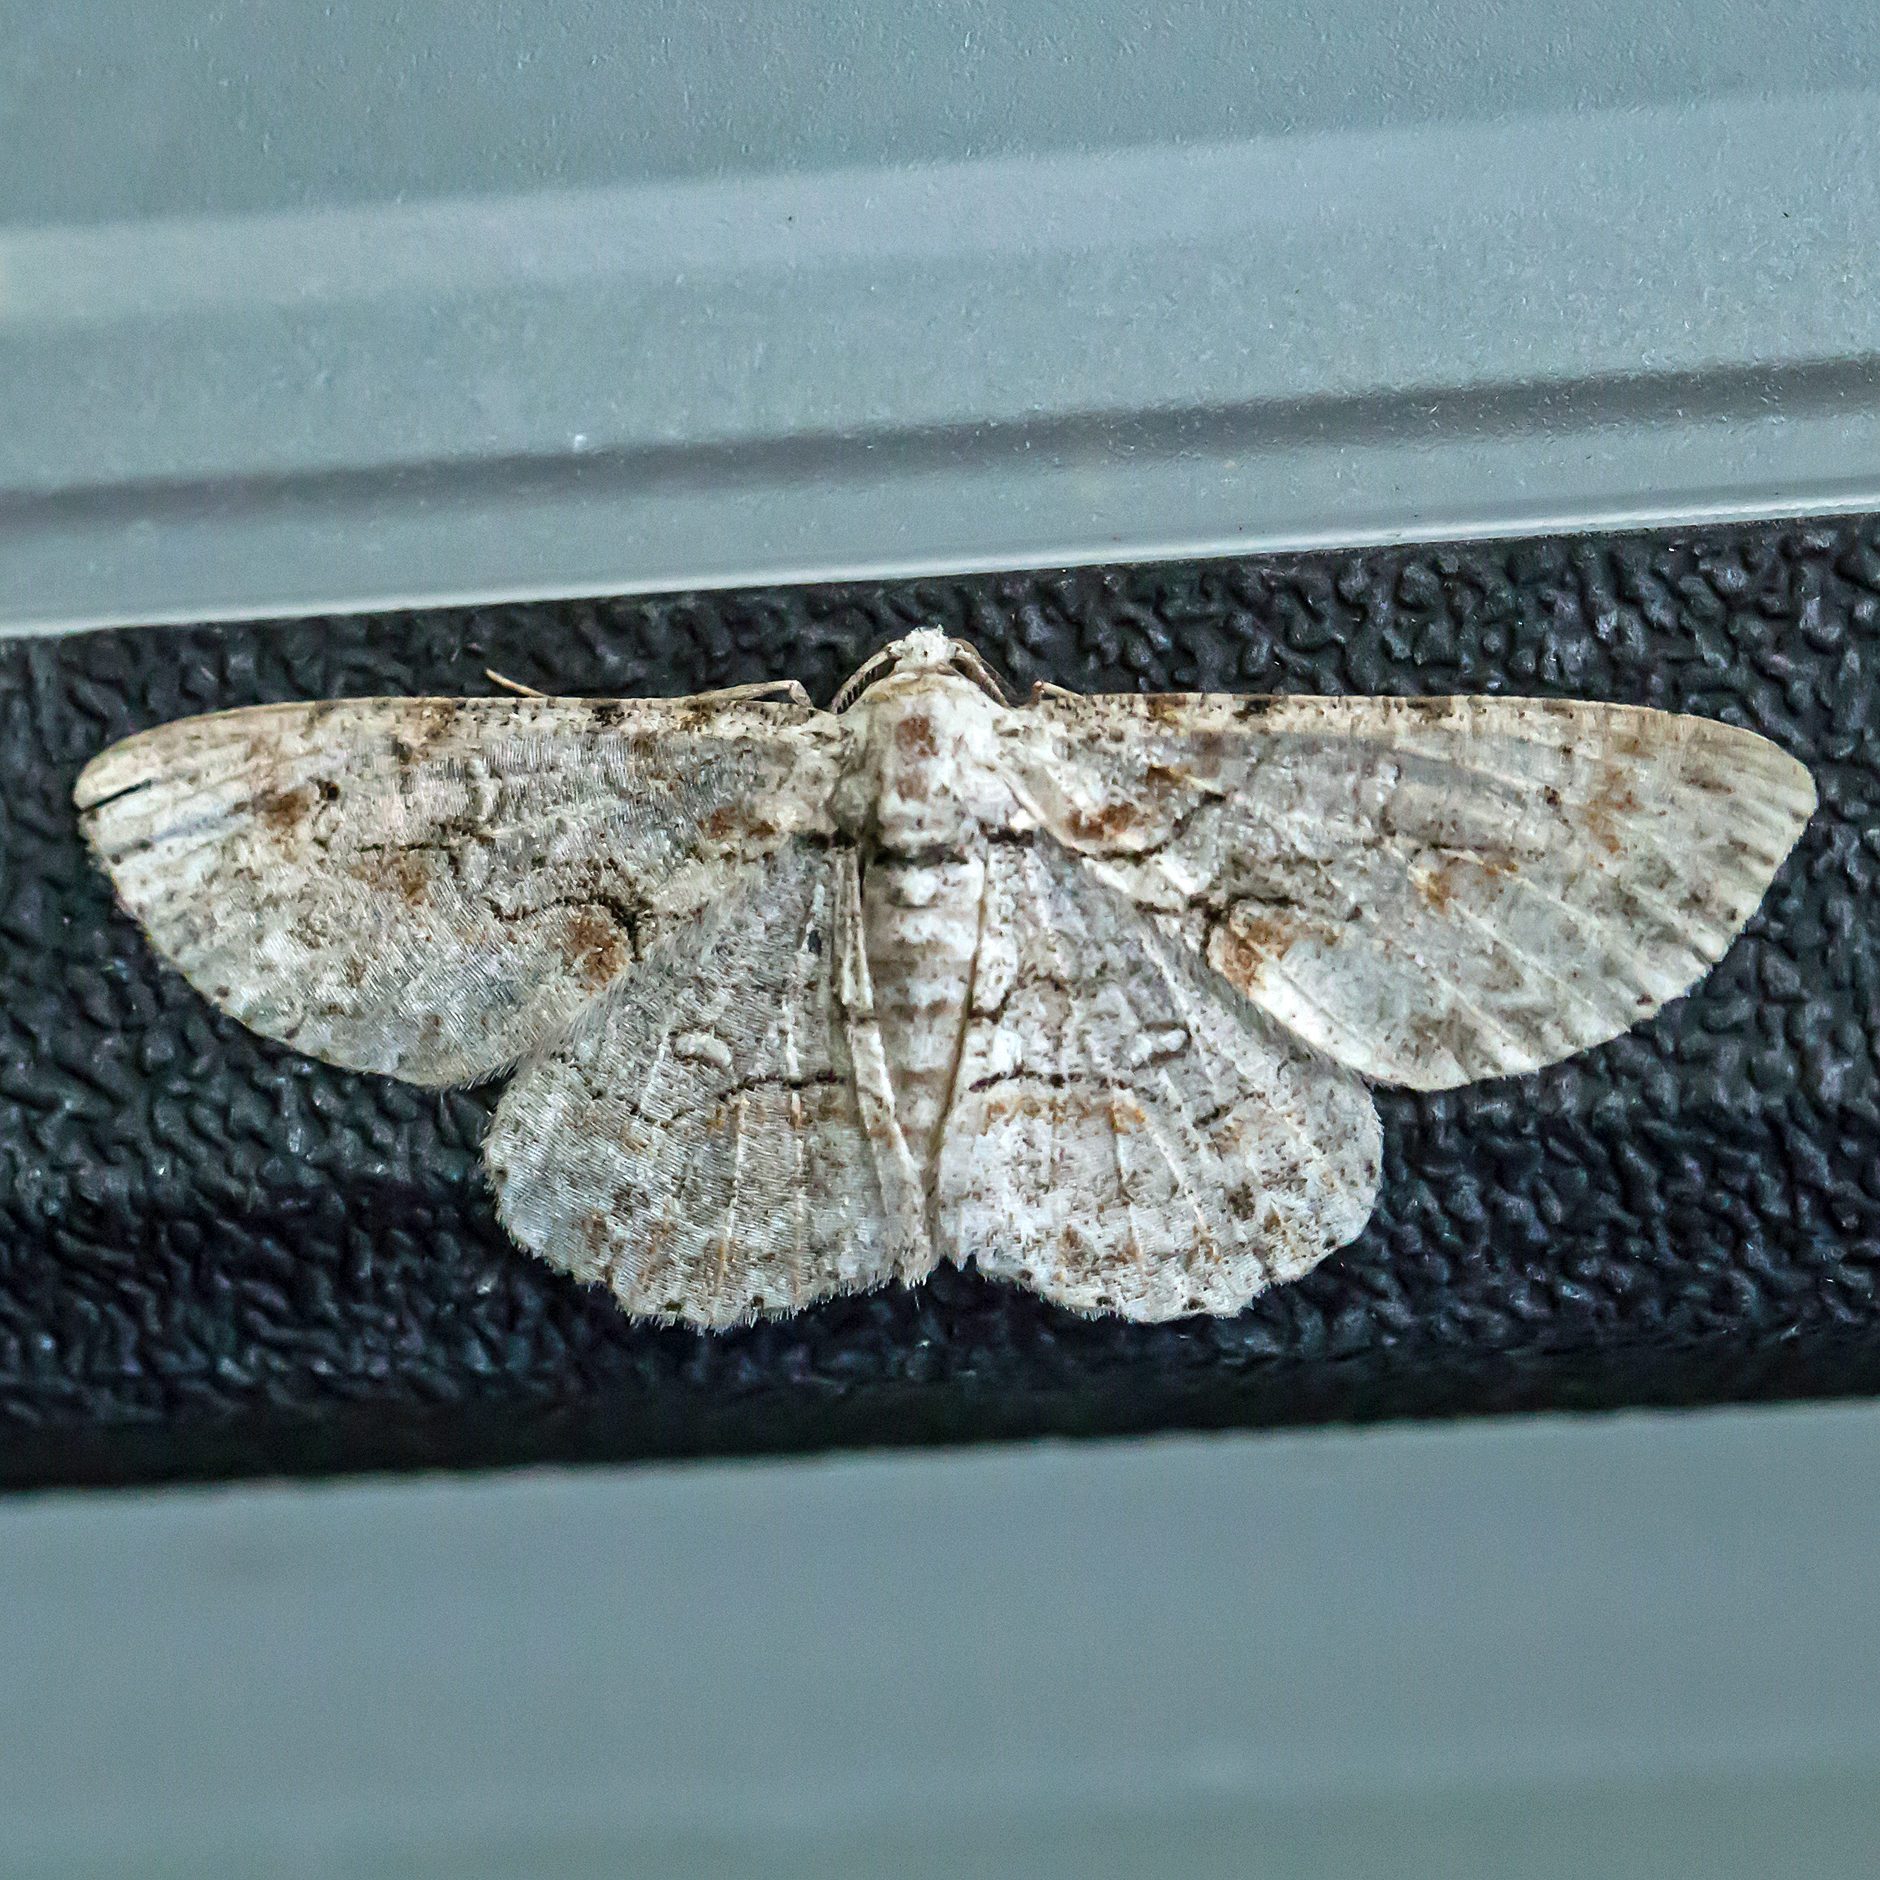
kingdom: Animalia
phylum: Arthropoda
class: Insecta
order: Lepidoptera
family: Geometridae
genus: Iridopsis
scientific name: Iridopsis defectaria
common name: Brown-shaded gray
